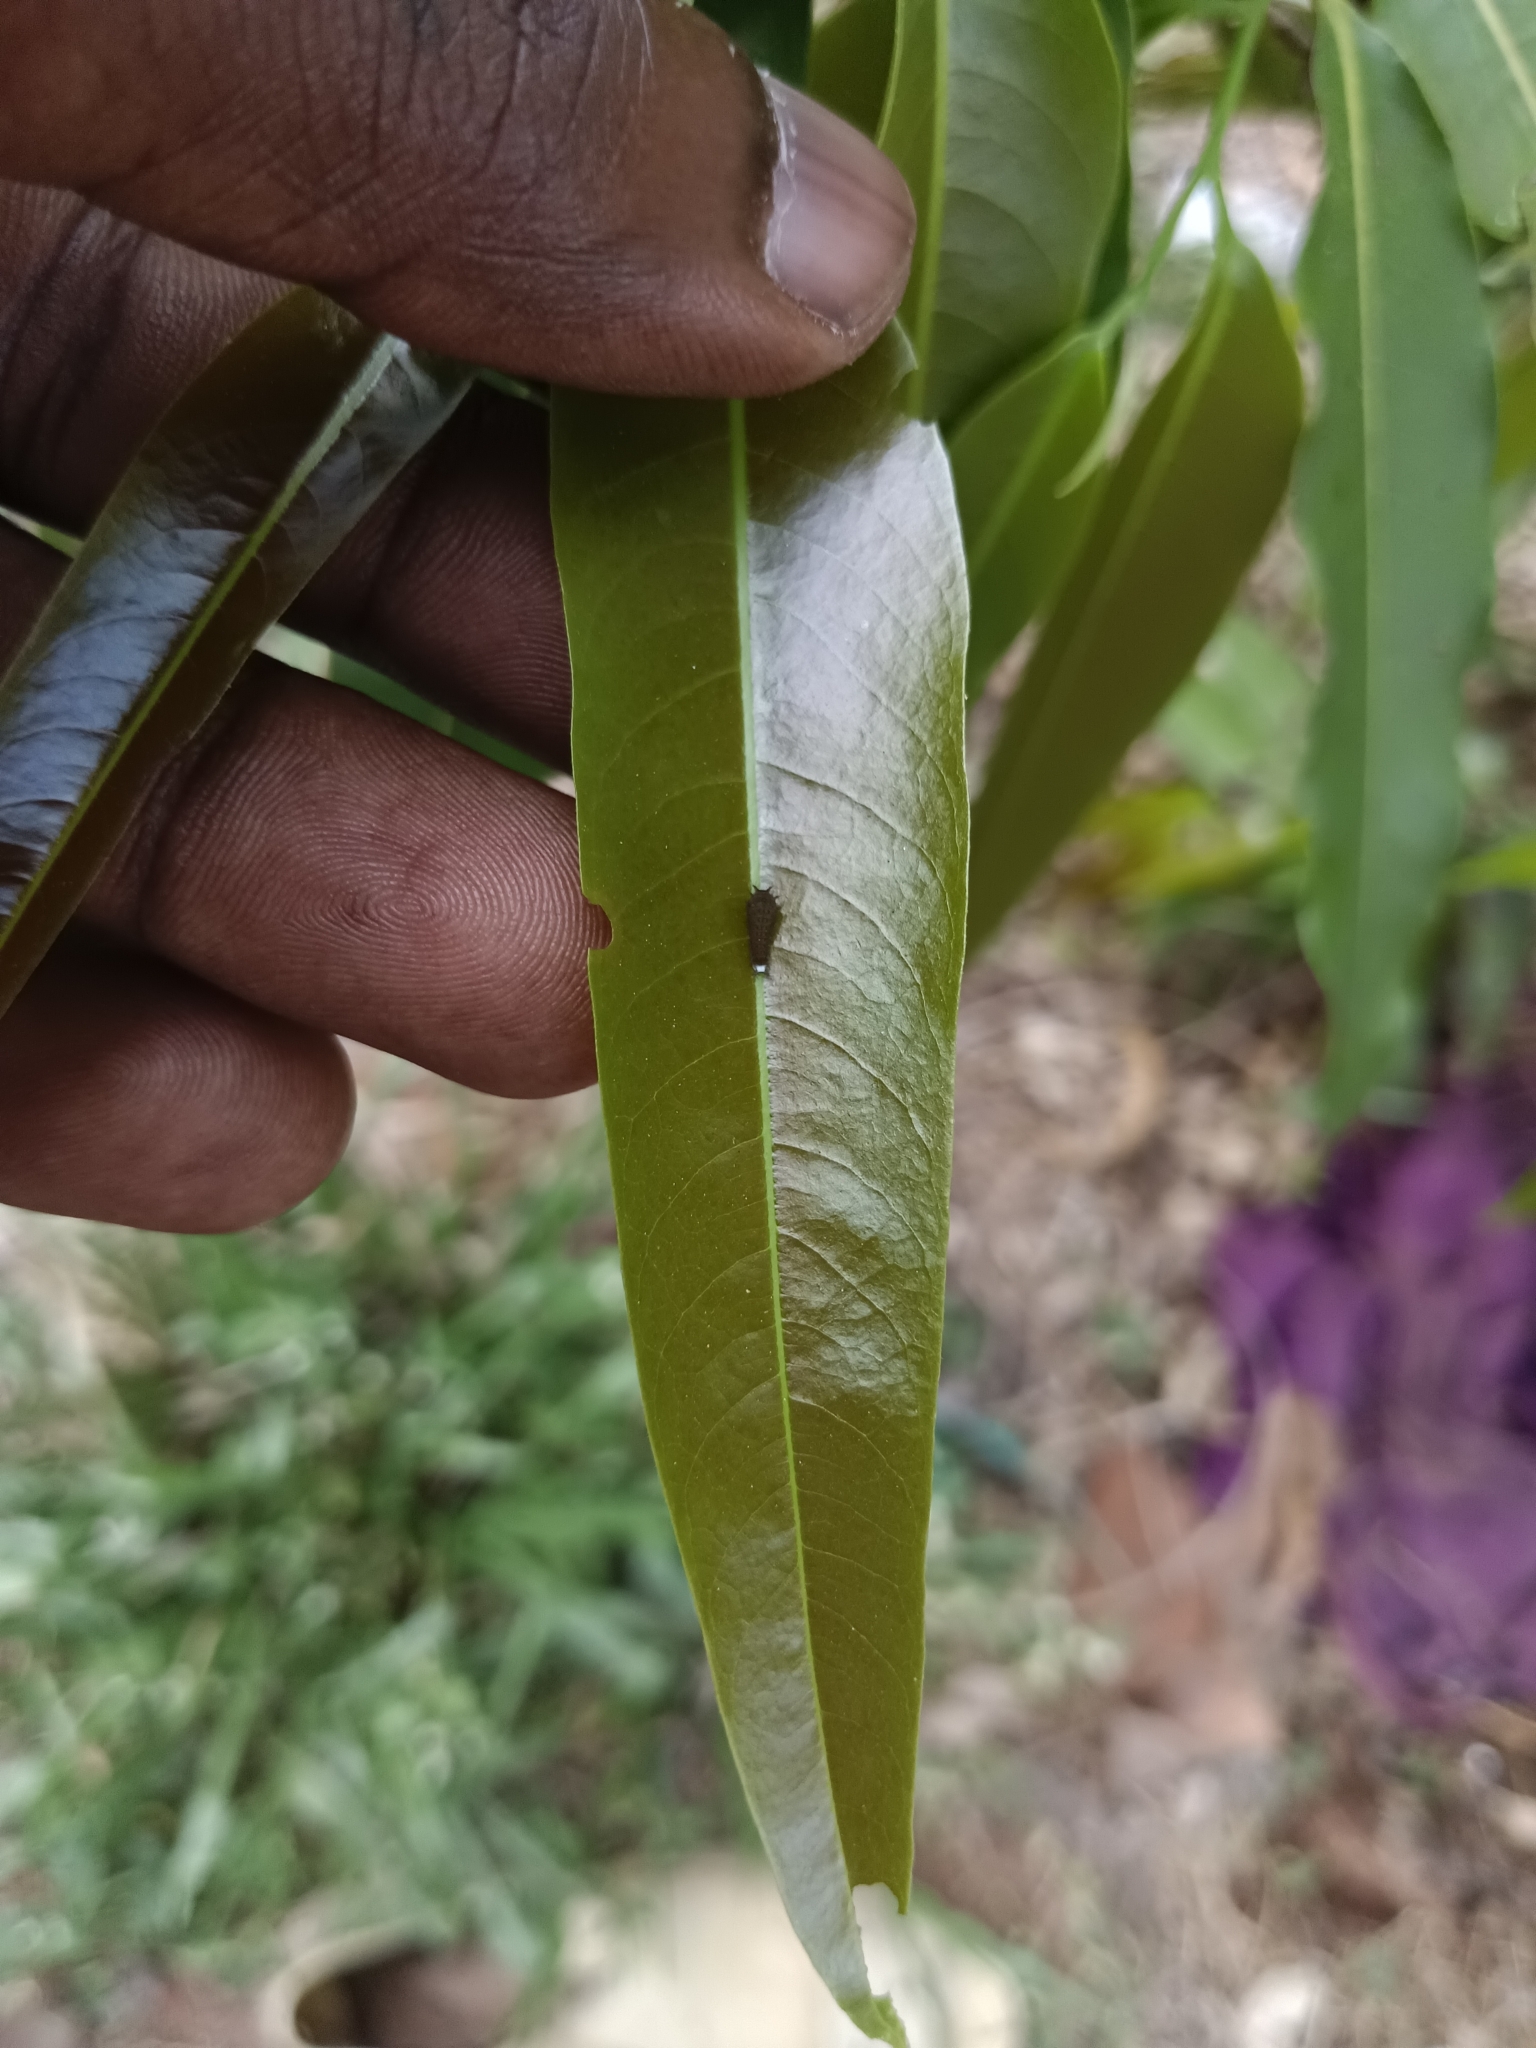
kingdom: Animalia
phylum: Arthropoda
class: Insecta
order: Lepidoptera
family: Papilionidae
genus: Graphium
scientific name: Graphium doson
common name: Common jay
